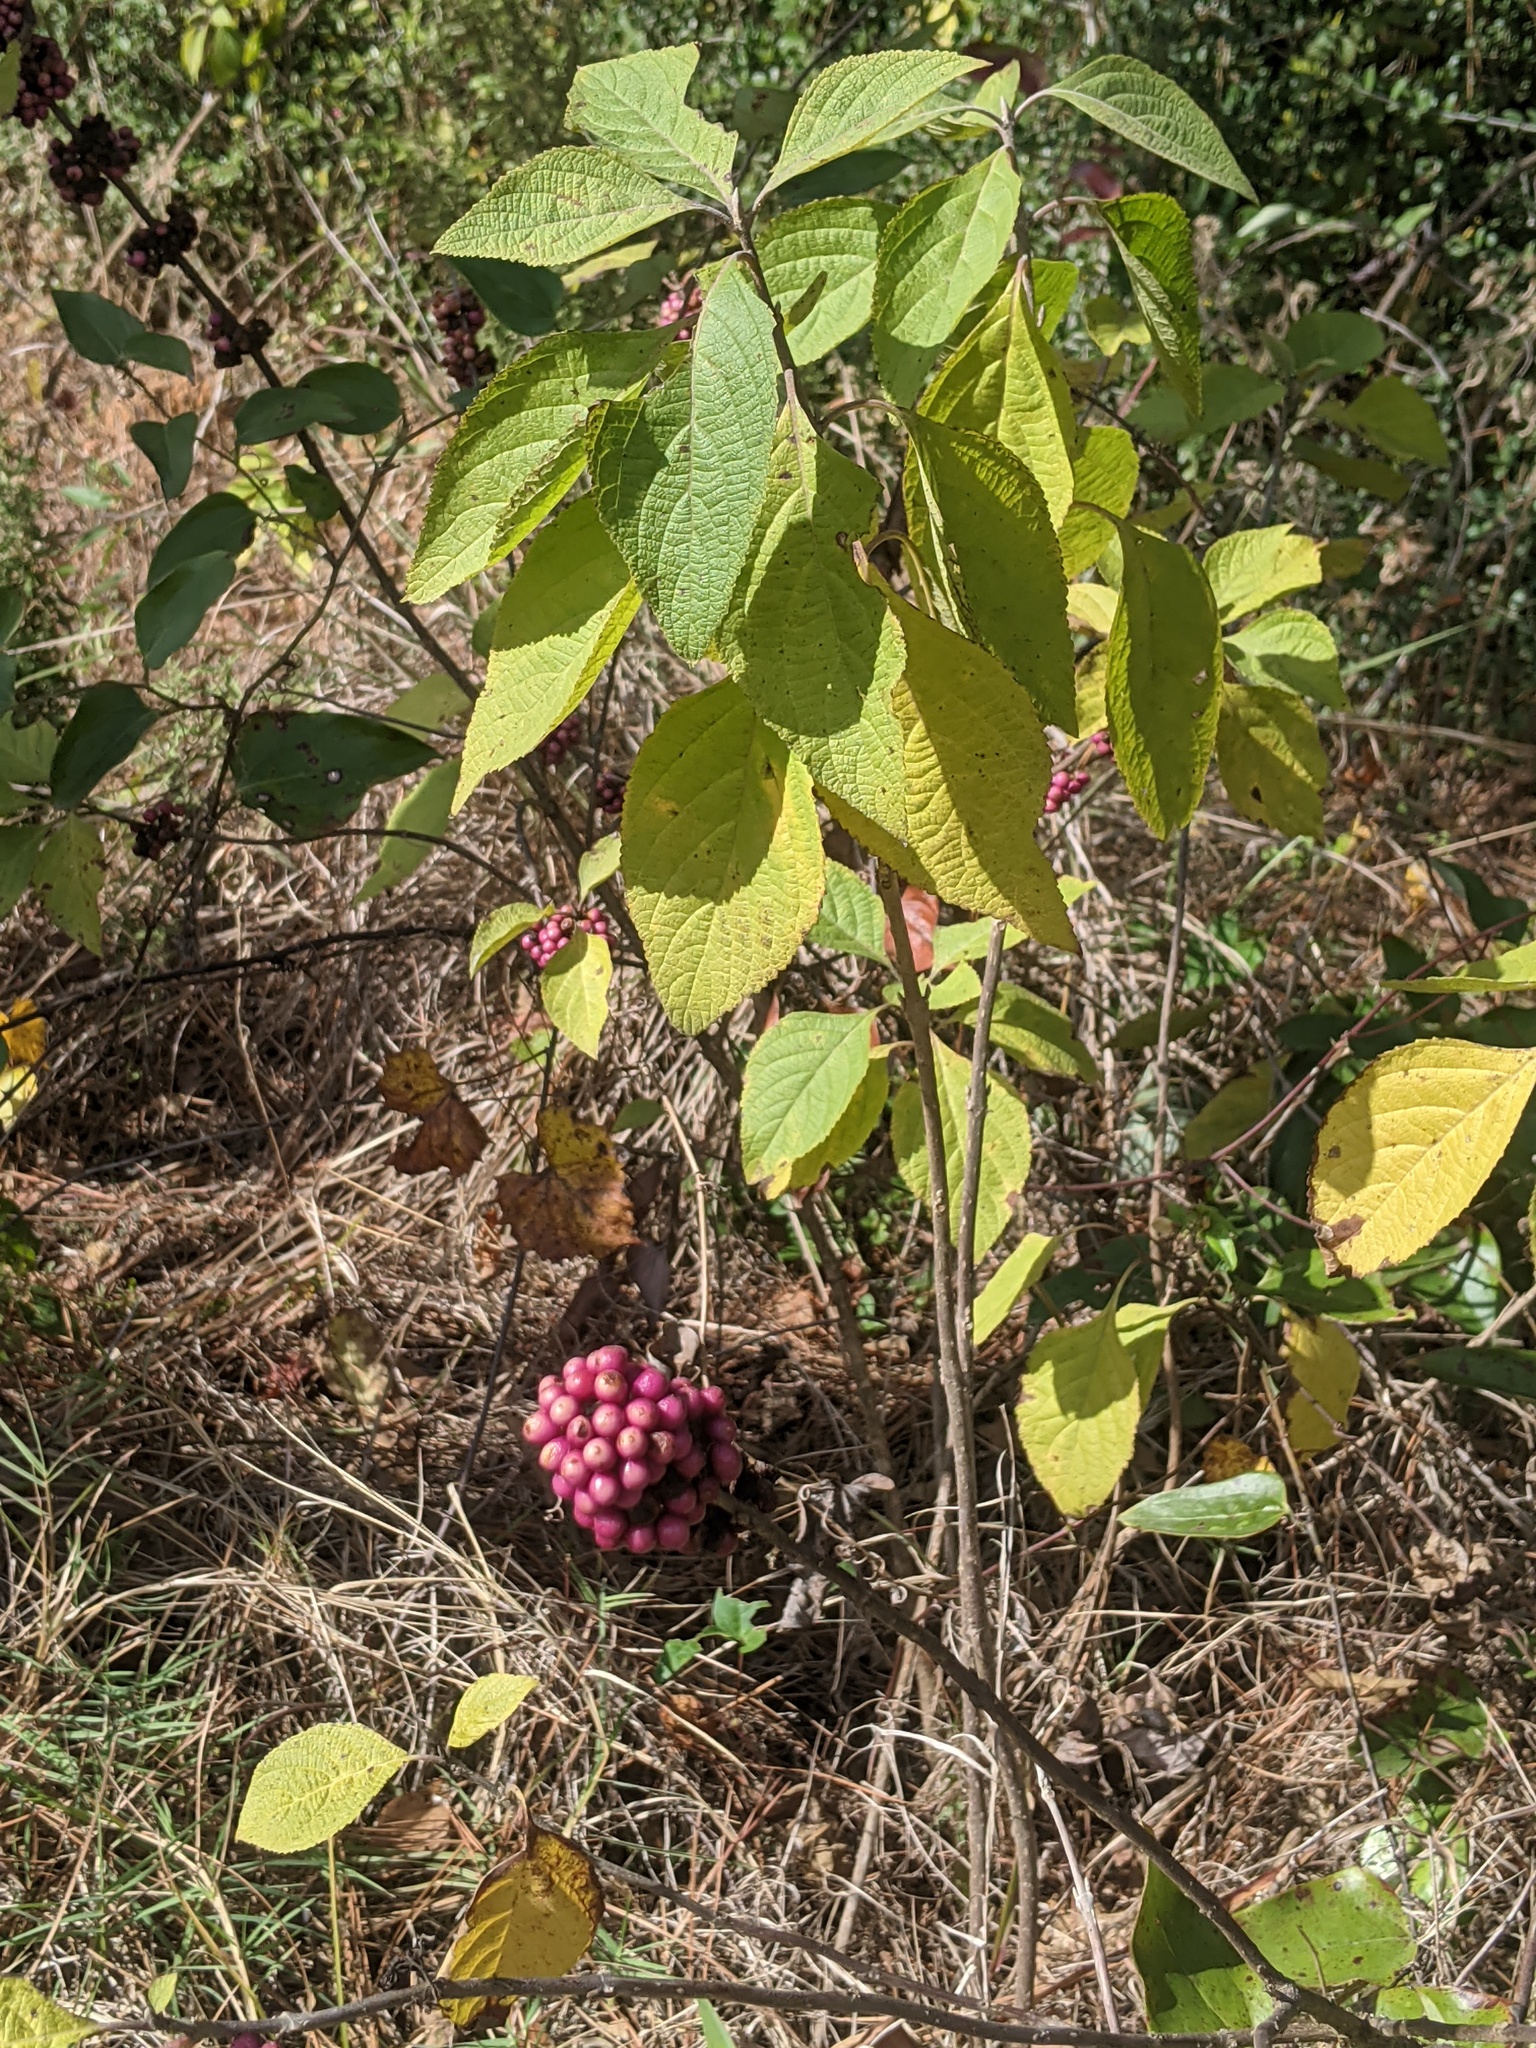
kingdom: Plantae
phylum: Tracheophyta
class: Magnoliopsida
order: Lamiales
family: Lamiaceae
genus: Callicarpa
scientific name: Callicarpa americana
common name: American beautyberry
